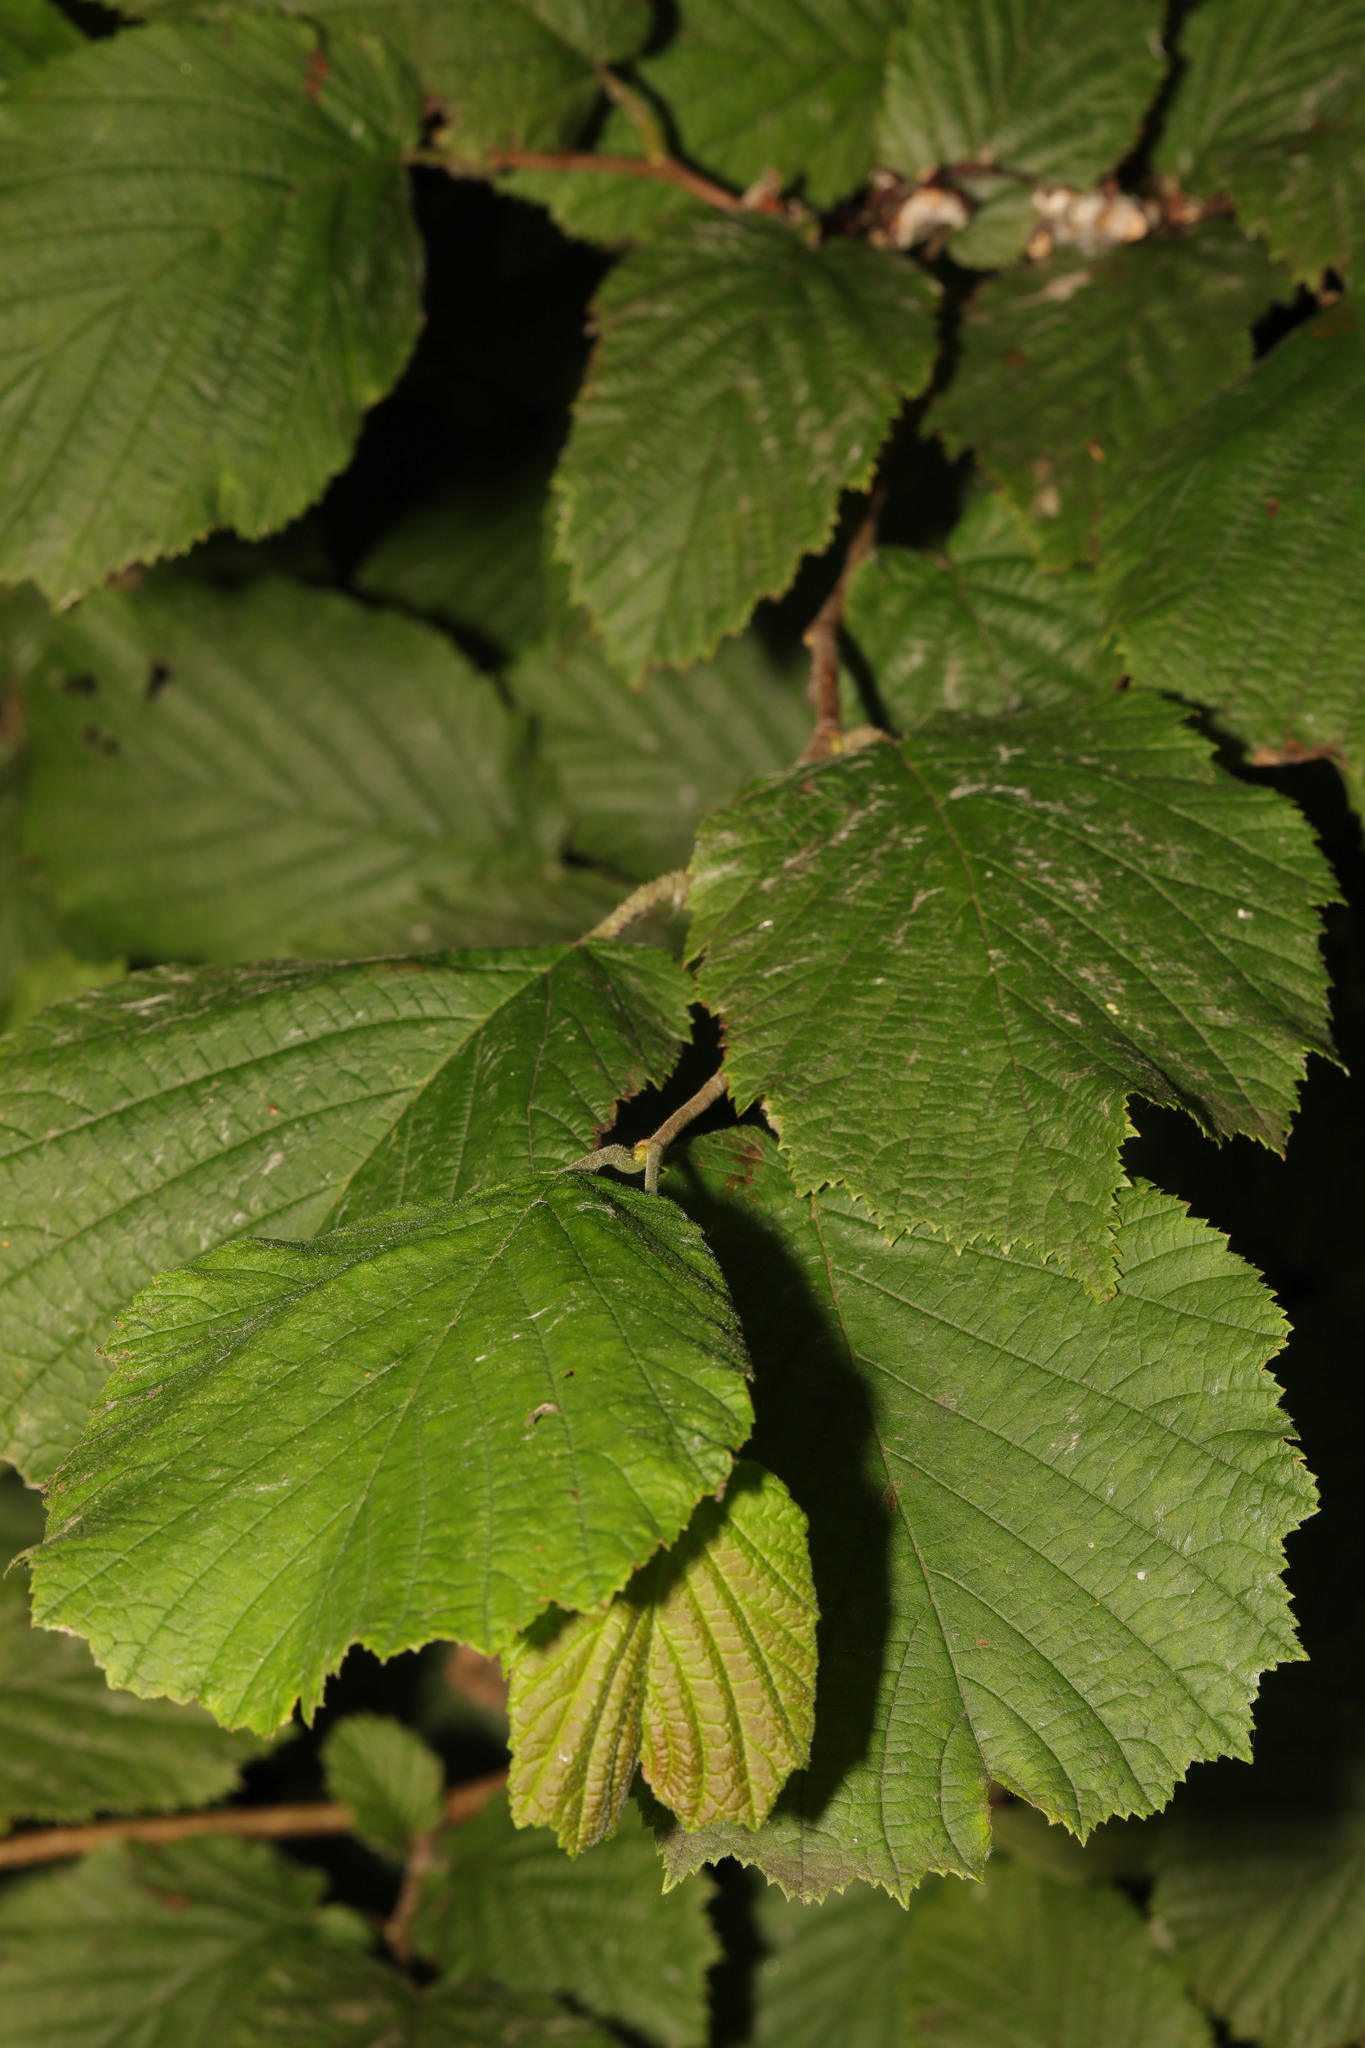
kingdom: Plantae
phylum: Tracheophyta
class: Magnoliopsida
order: Fagales
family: Betulaceae
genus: Corylus
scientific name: Corylus avellana
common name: European hazel
